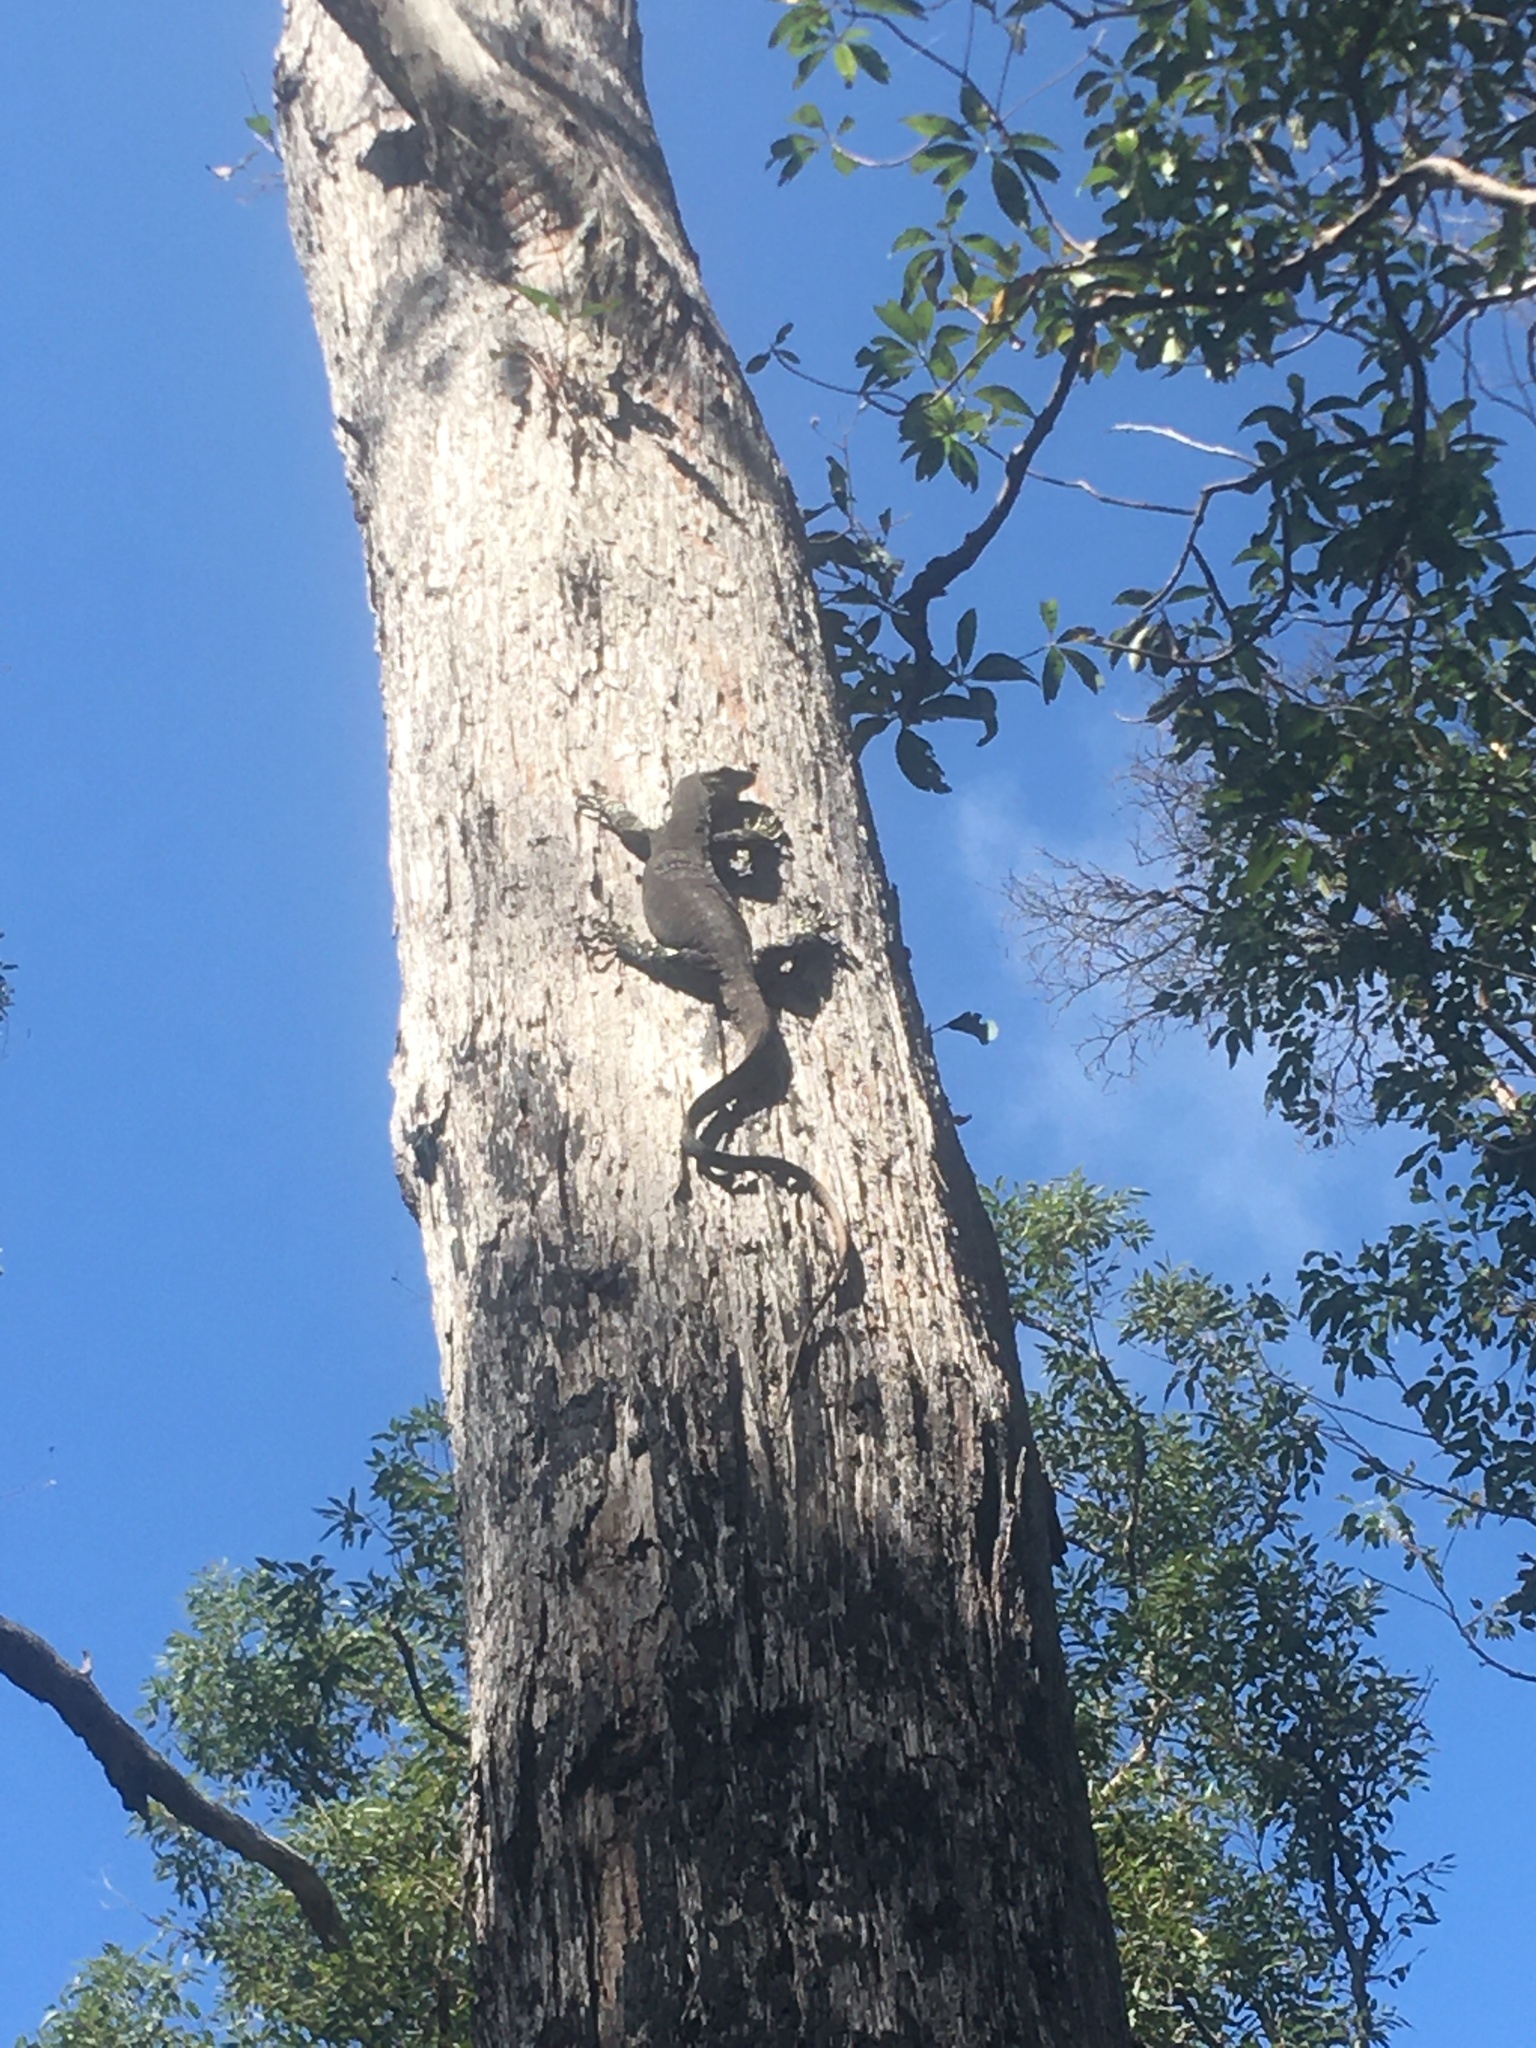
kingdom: Animalia
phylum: Chordata
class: Squamata
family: Varanidae
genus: Varanus
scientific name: Varanus varius
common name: Lace monitor
